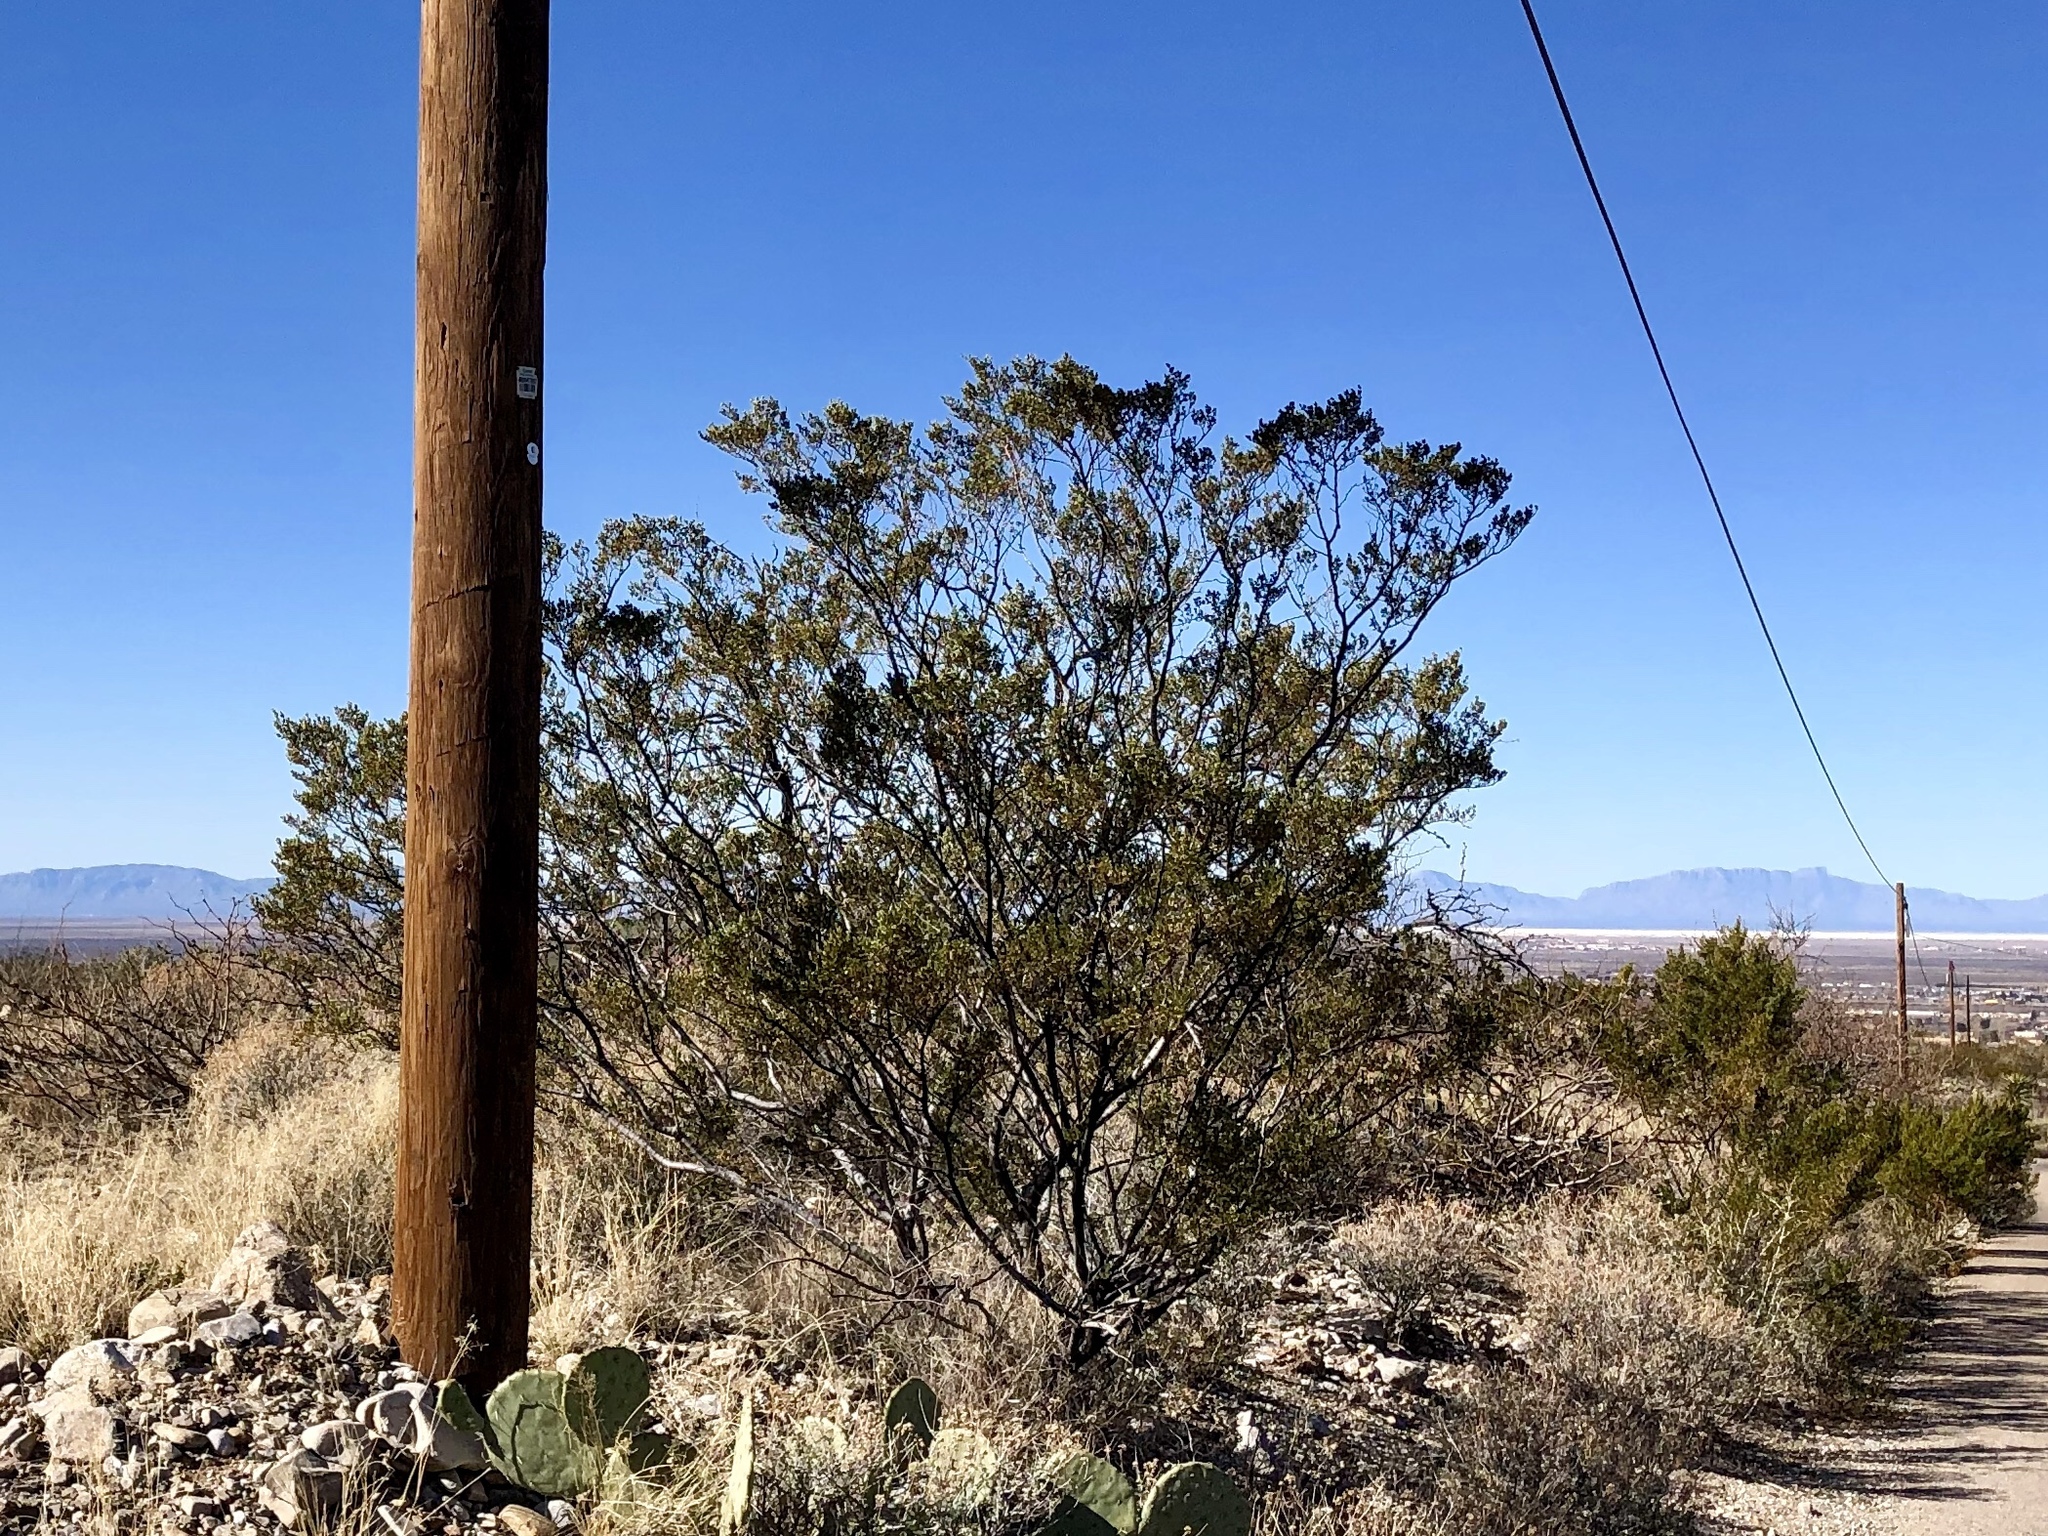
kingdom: Plantae
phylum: Tracheophyta
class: Magnoliopsida
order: Zygophyllales
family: Zygophyllaceae
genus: Larrea
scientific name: Larrea tridentata
